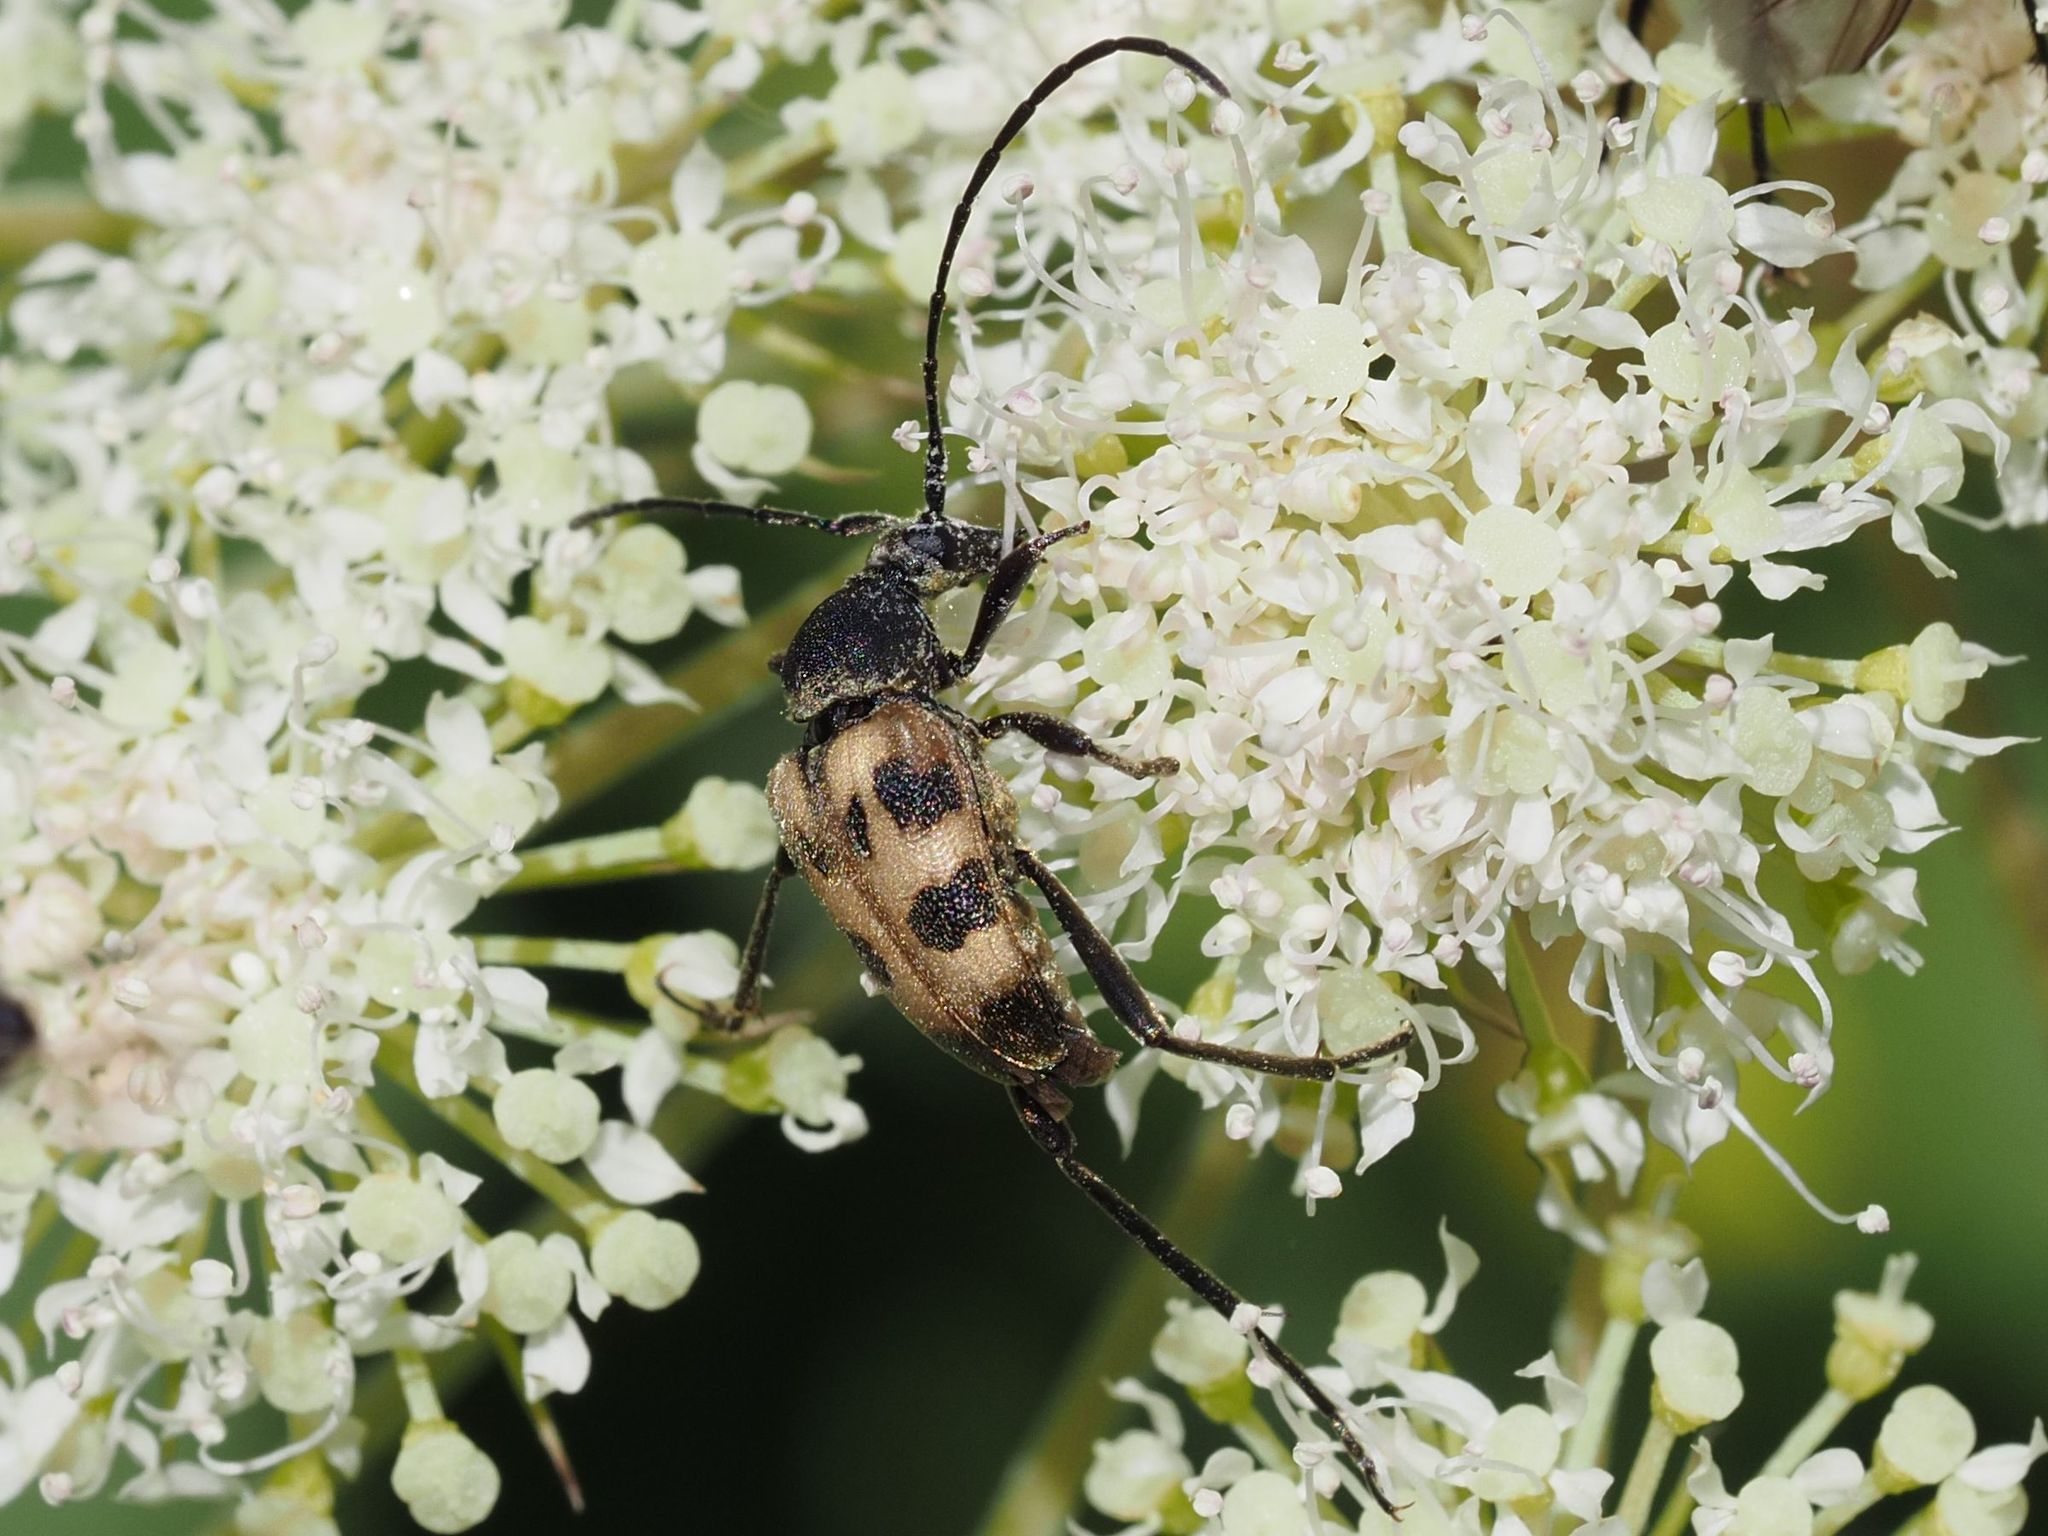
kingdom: Animalia
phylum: Arthropoda
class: Insecta
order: Coleoptera
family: Cerambycidae
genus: Pachytodes
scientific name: Pachytodes cerambyciformis
